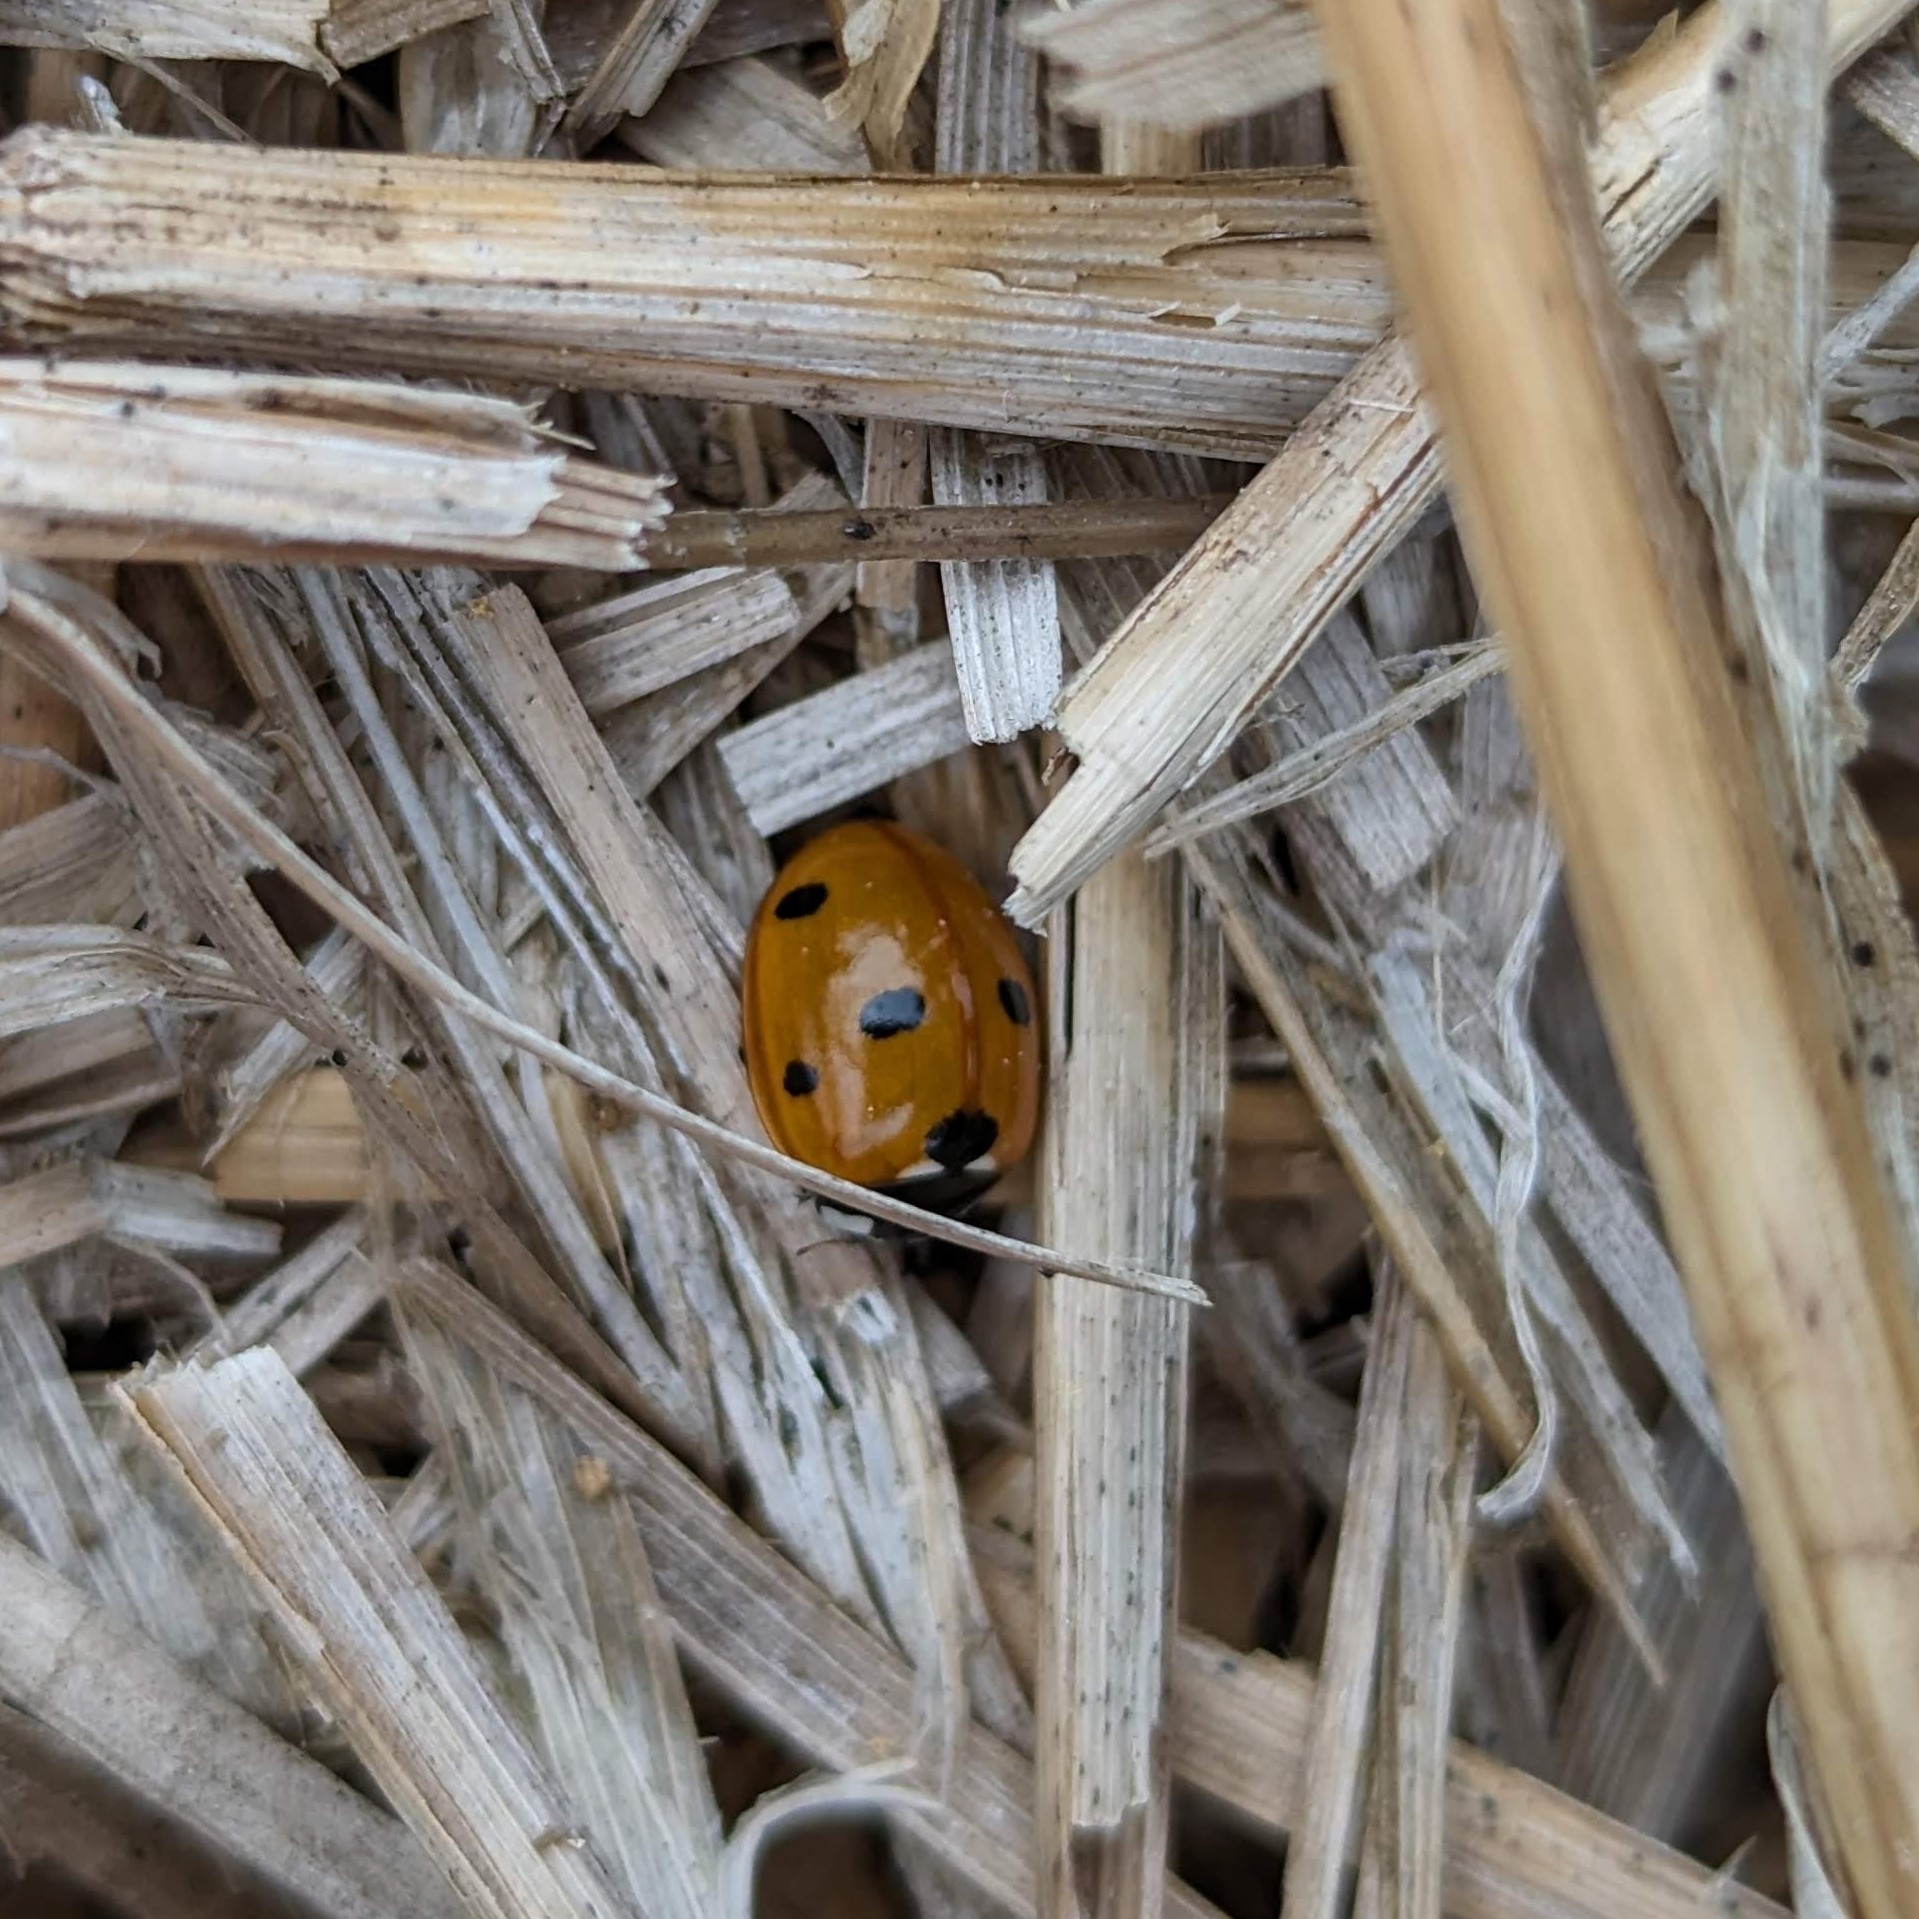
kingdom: Animalia
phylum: Arthropoda
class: Insecta
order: Coleoptera
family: Coccinellidae
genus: Coccinella
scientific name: Coccinella septempunctata
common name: Sevenspotted lady beetle
